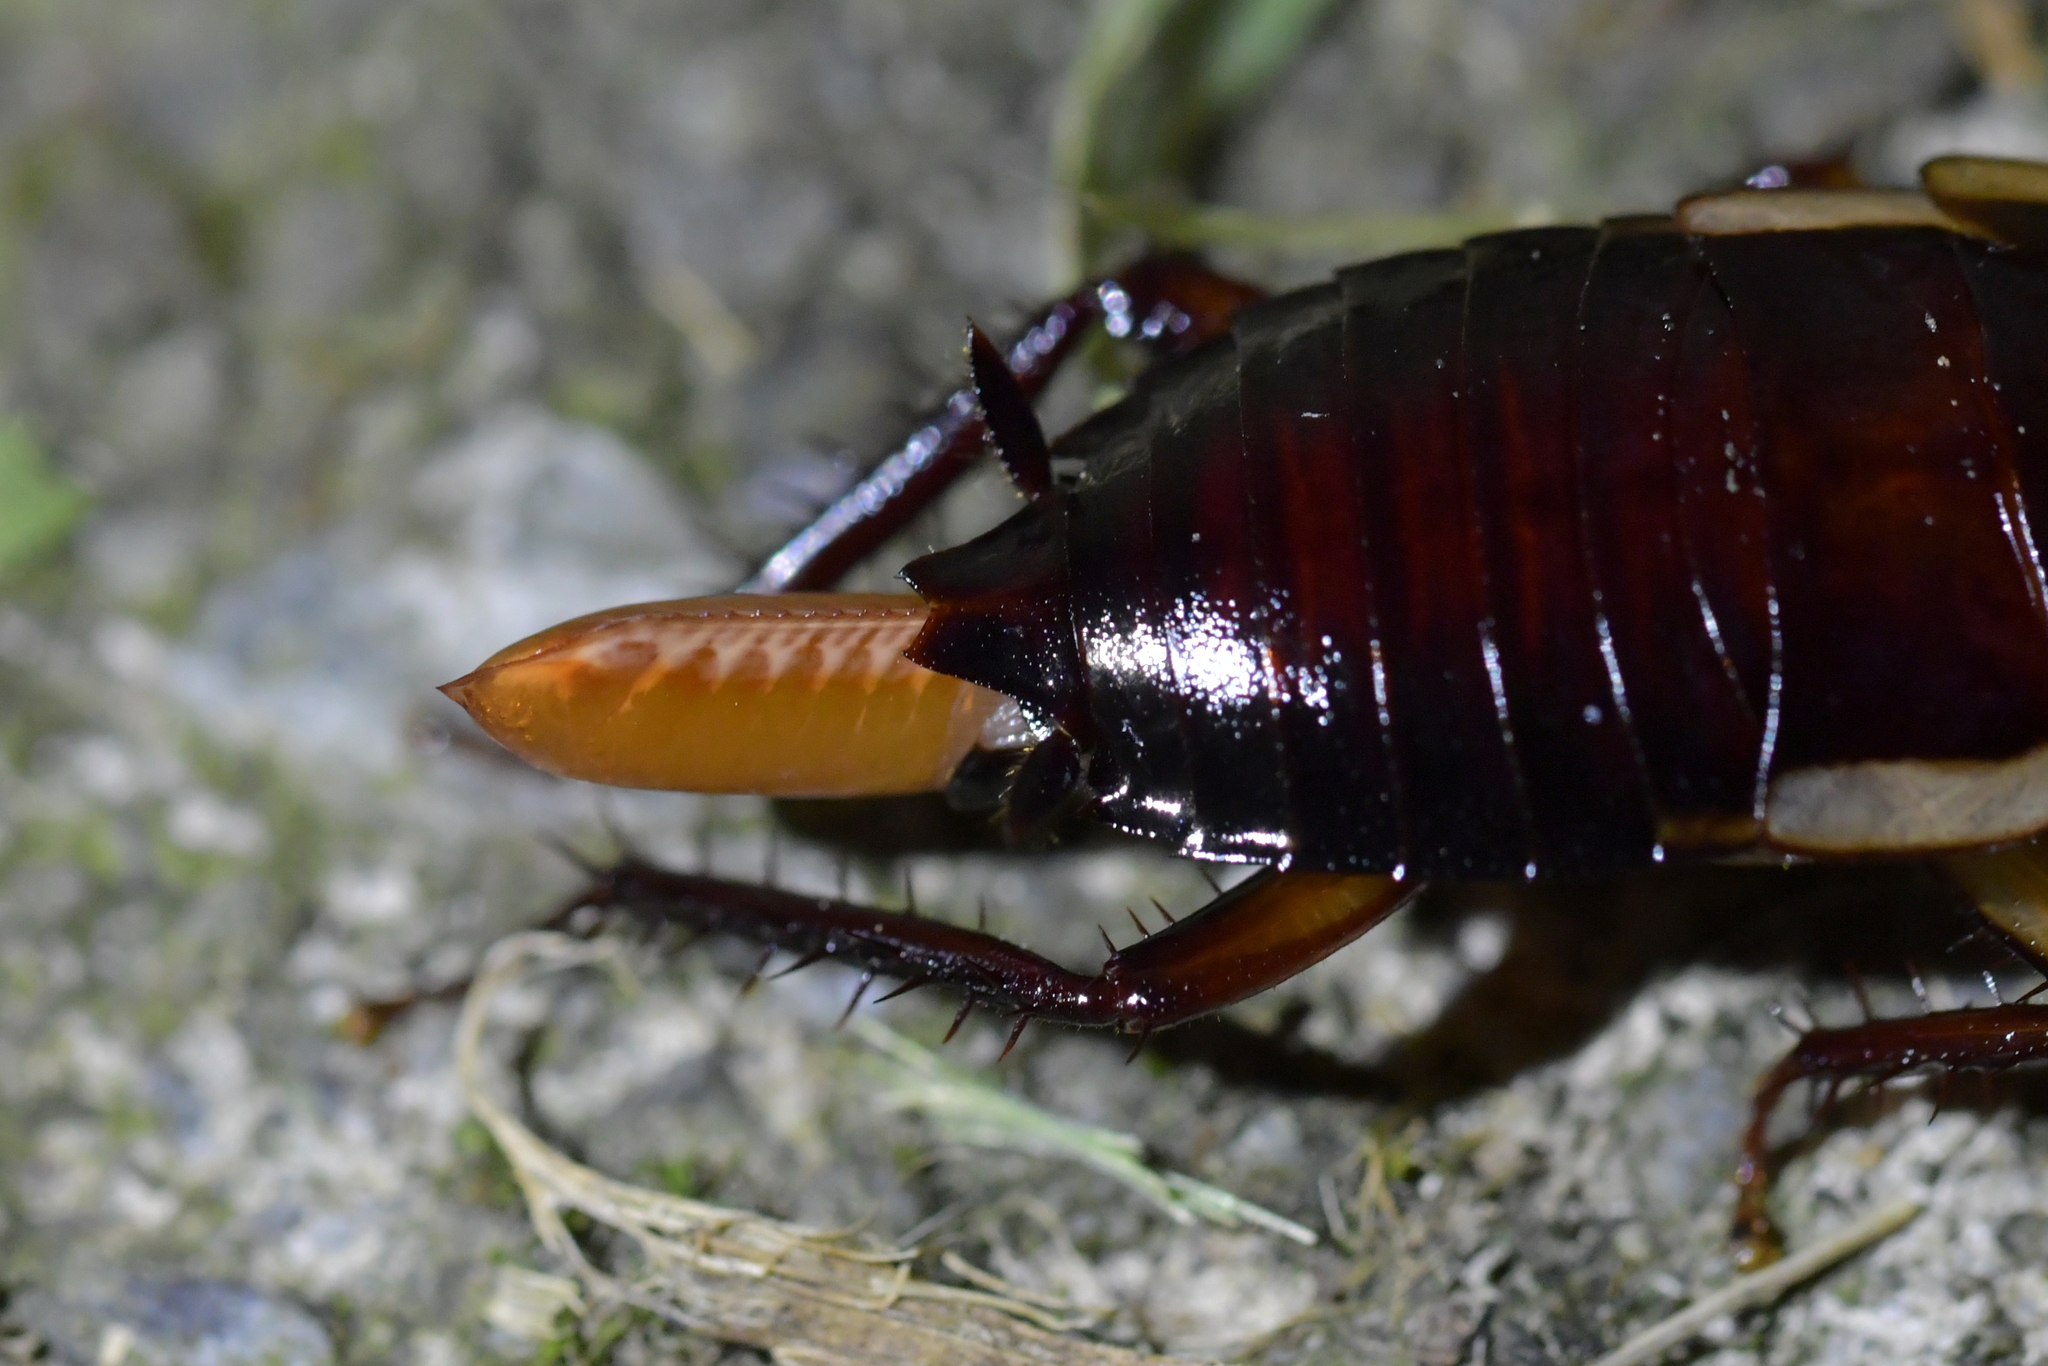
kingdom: Animalia
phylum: Arthropoda
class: Insecta
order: Blattodea
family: Blattidae
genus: Drymaplaneta
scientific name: Drymaplaneta semivitta
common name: Gisborne cockroach
